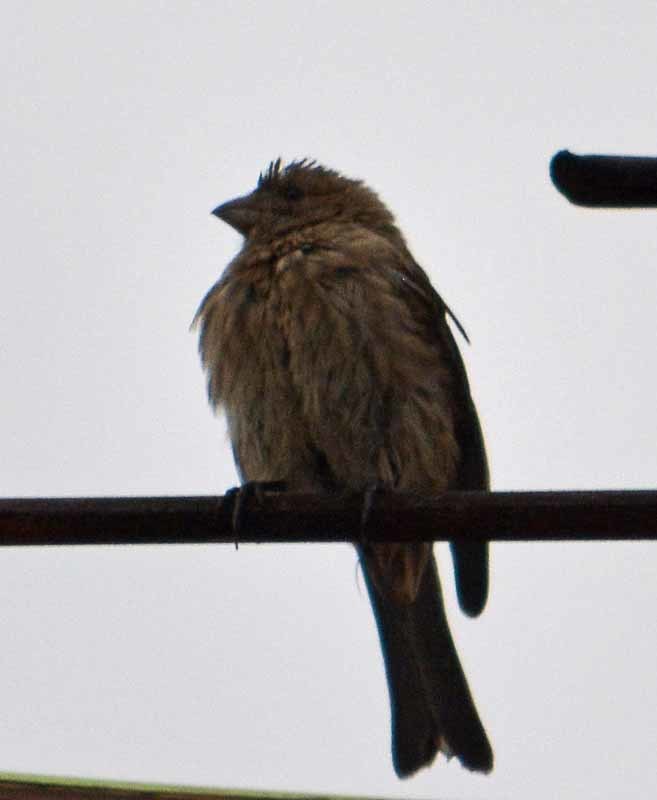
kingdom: Animalia
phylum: Chordata
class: Aves
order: Passeriformes
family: Fringillidae
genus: Haemorhous
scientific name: Haemorhous mexicanus
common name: House finch
